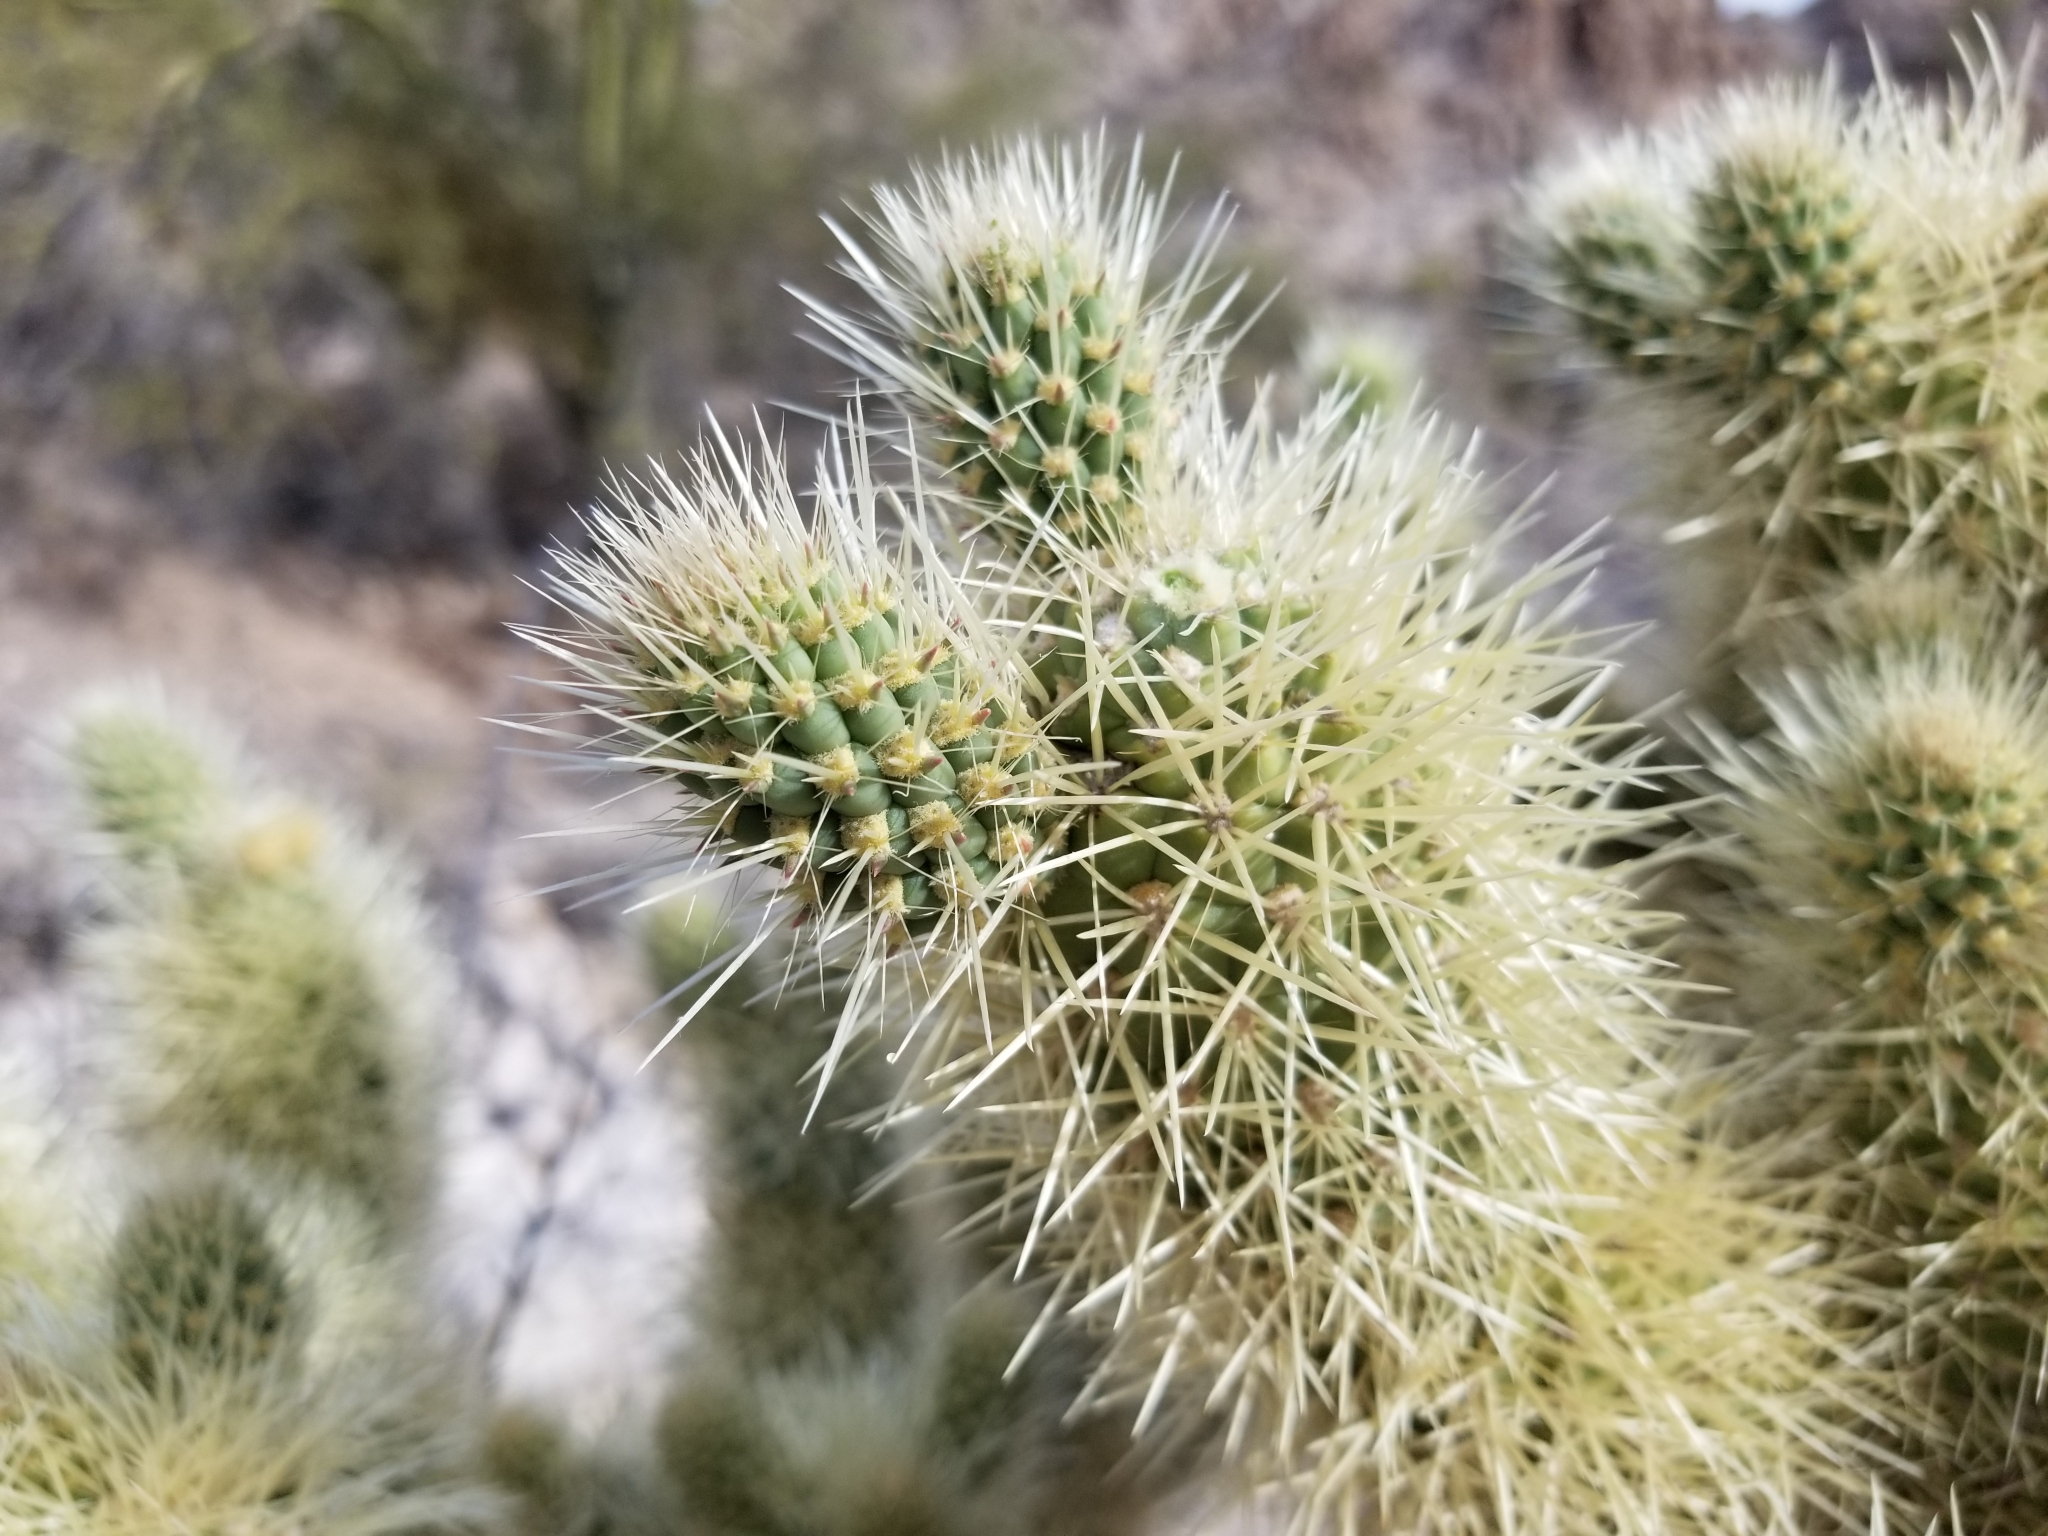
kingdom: Plantae
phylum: Tracheophyta
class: Magnoliopsida
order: Caryophyllales
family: Cactaceae
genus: Cylindropuntia
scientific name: Cylindropuntia fosbergii
